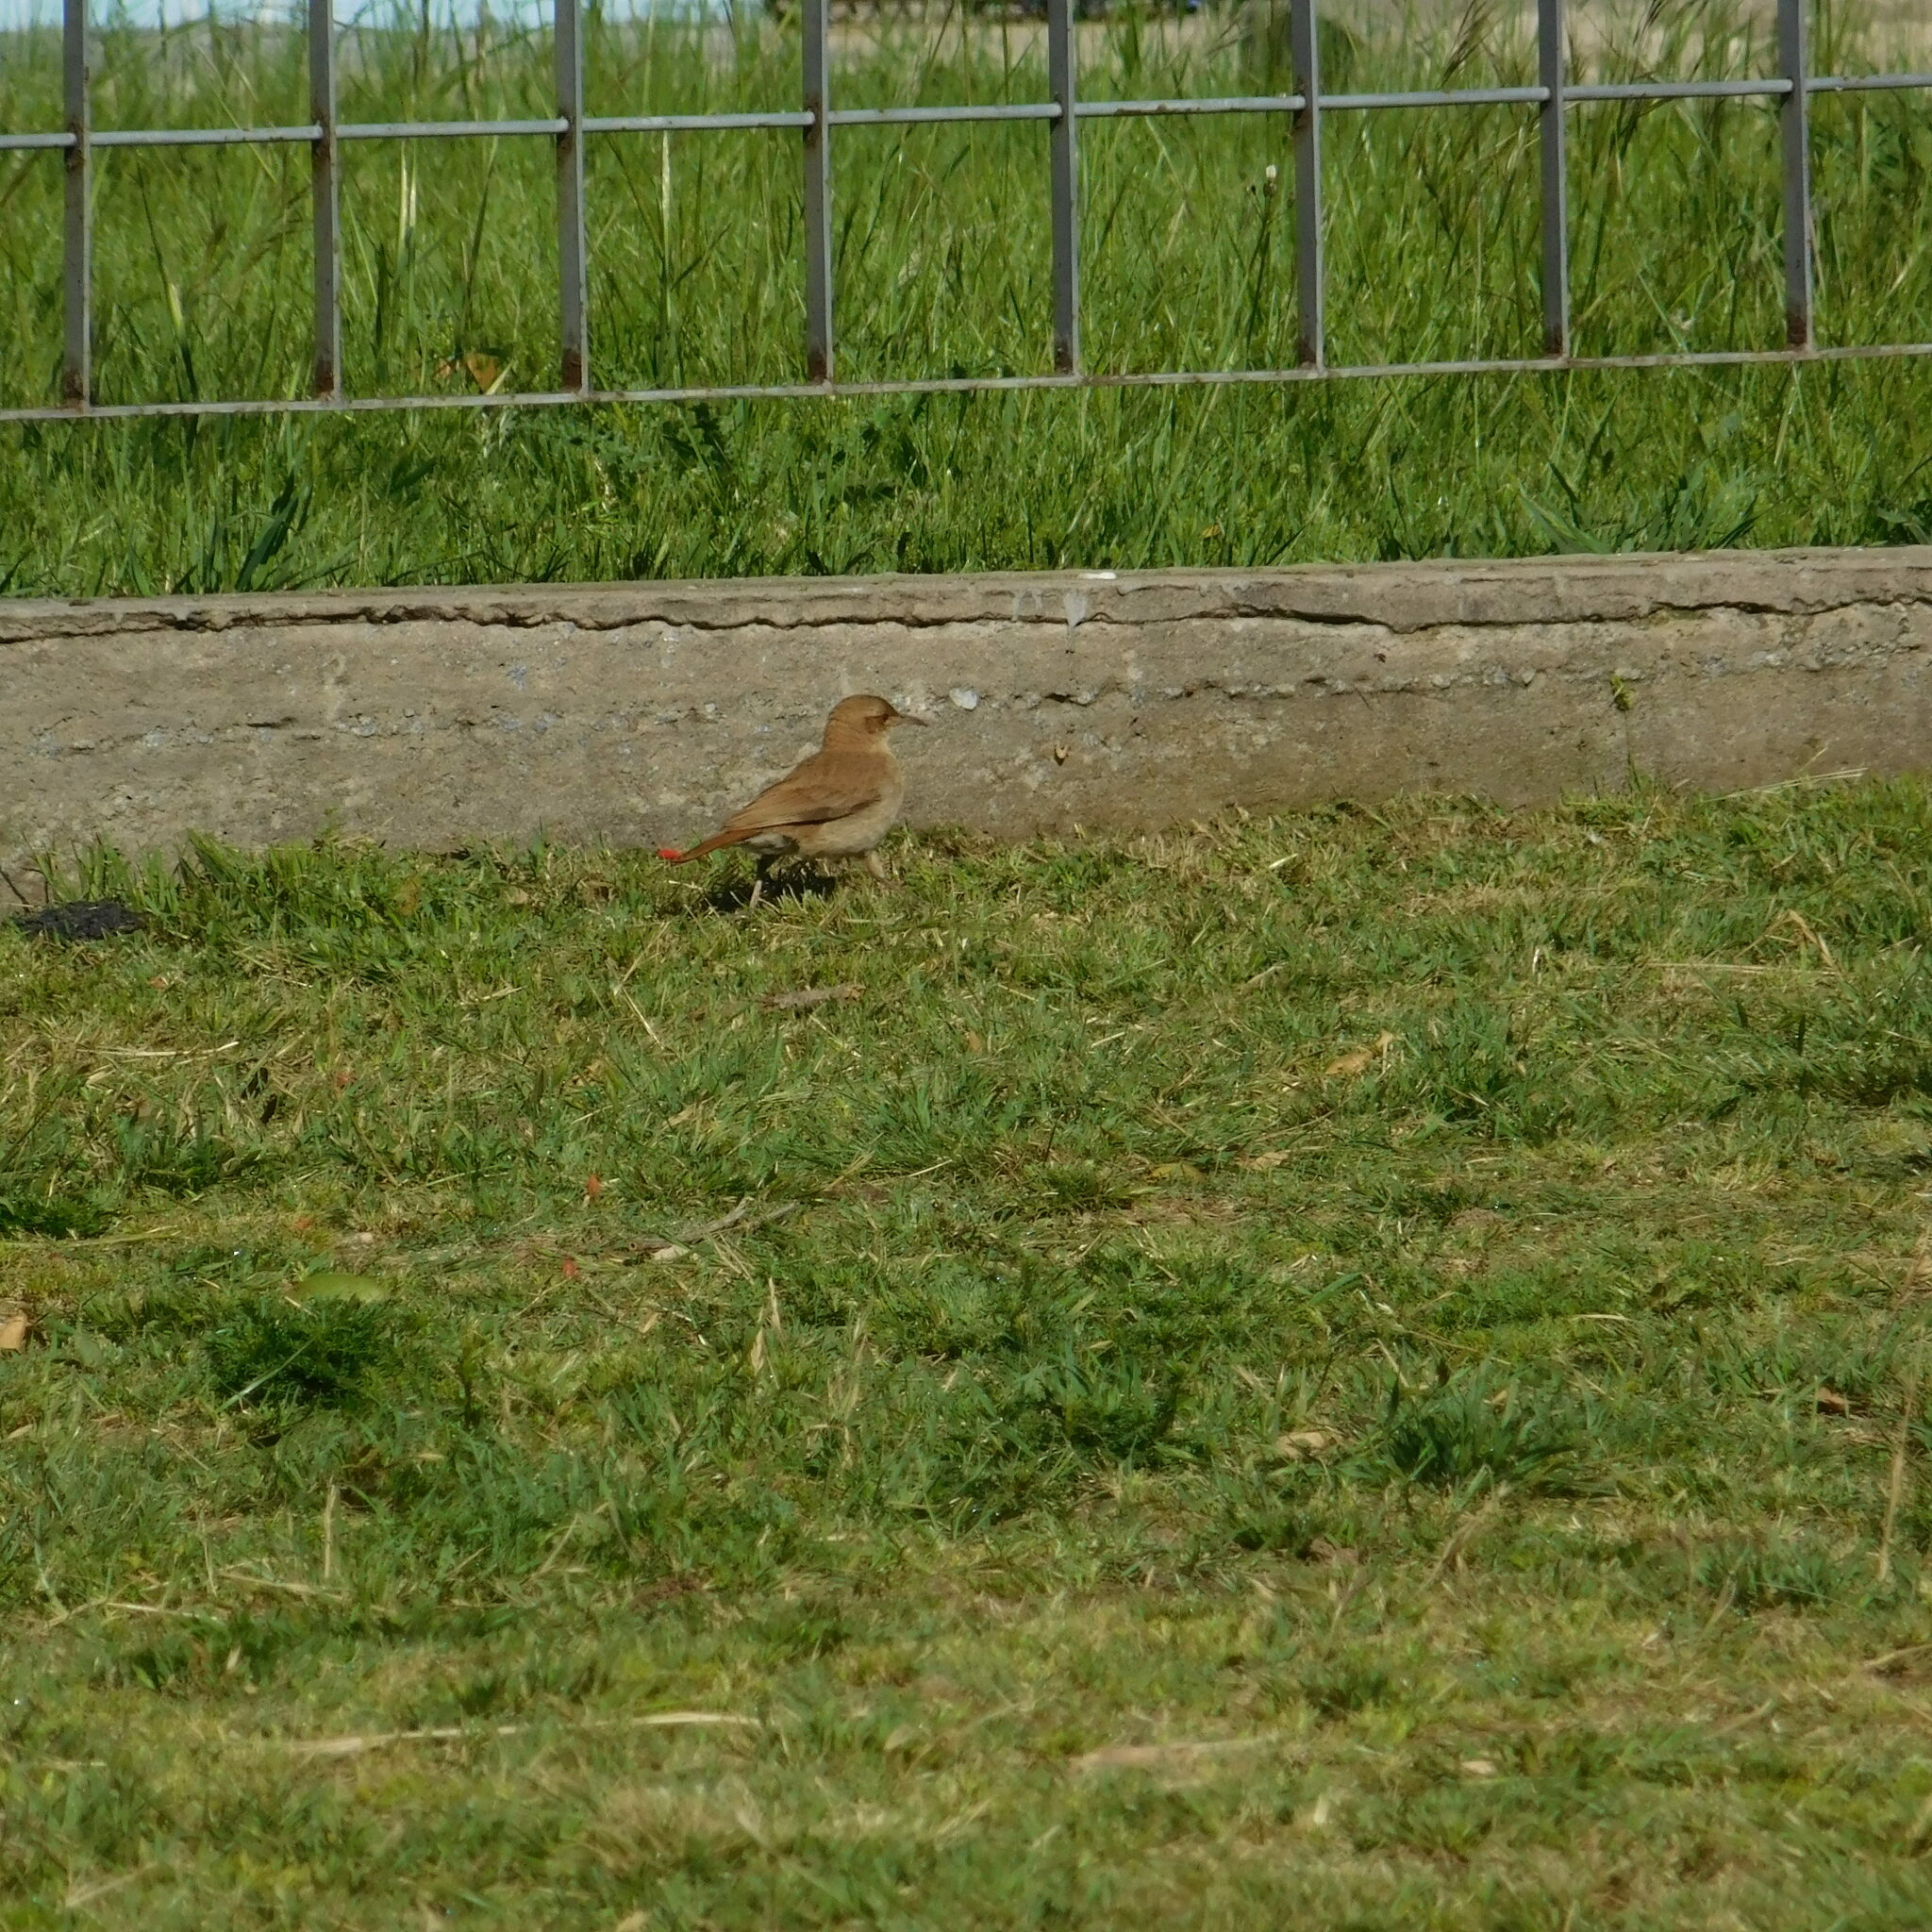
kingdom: Animalia
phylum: Chordata
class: Aves
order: Passeriformes
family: Furnariidae
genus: Furnarius
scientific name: Furnarius rufus
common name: Rufous hornero
